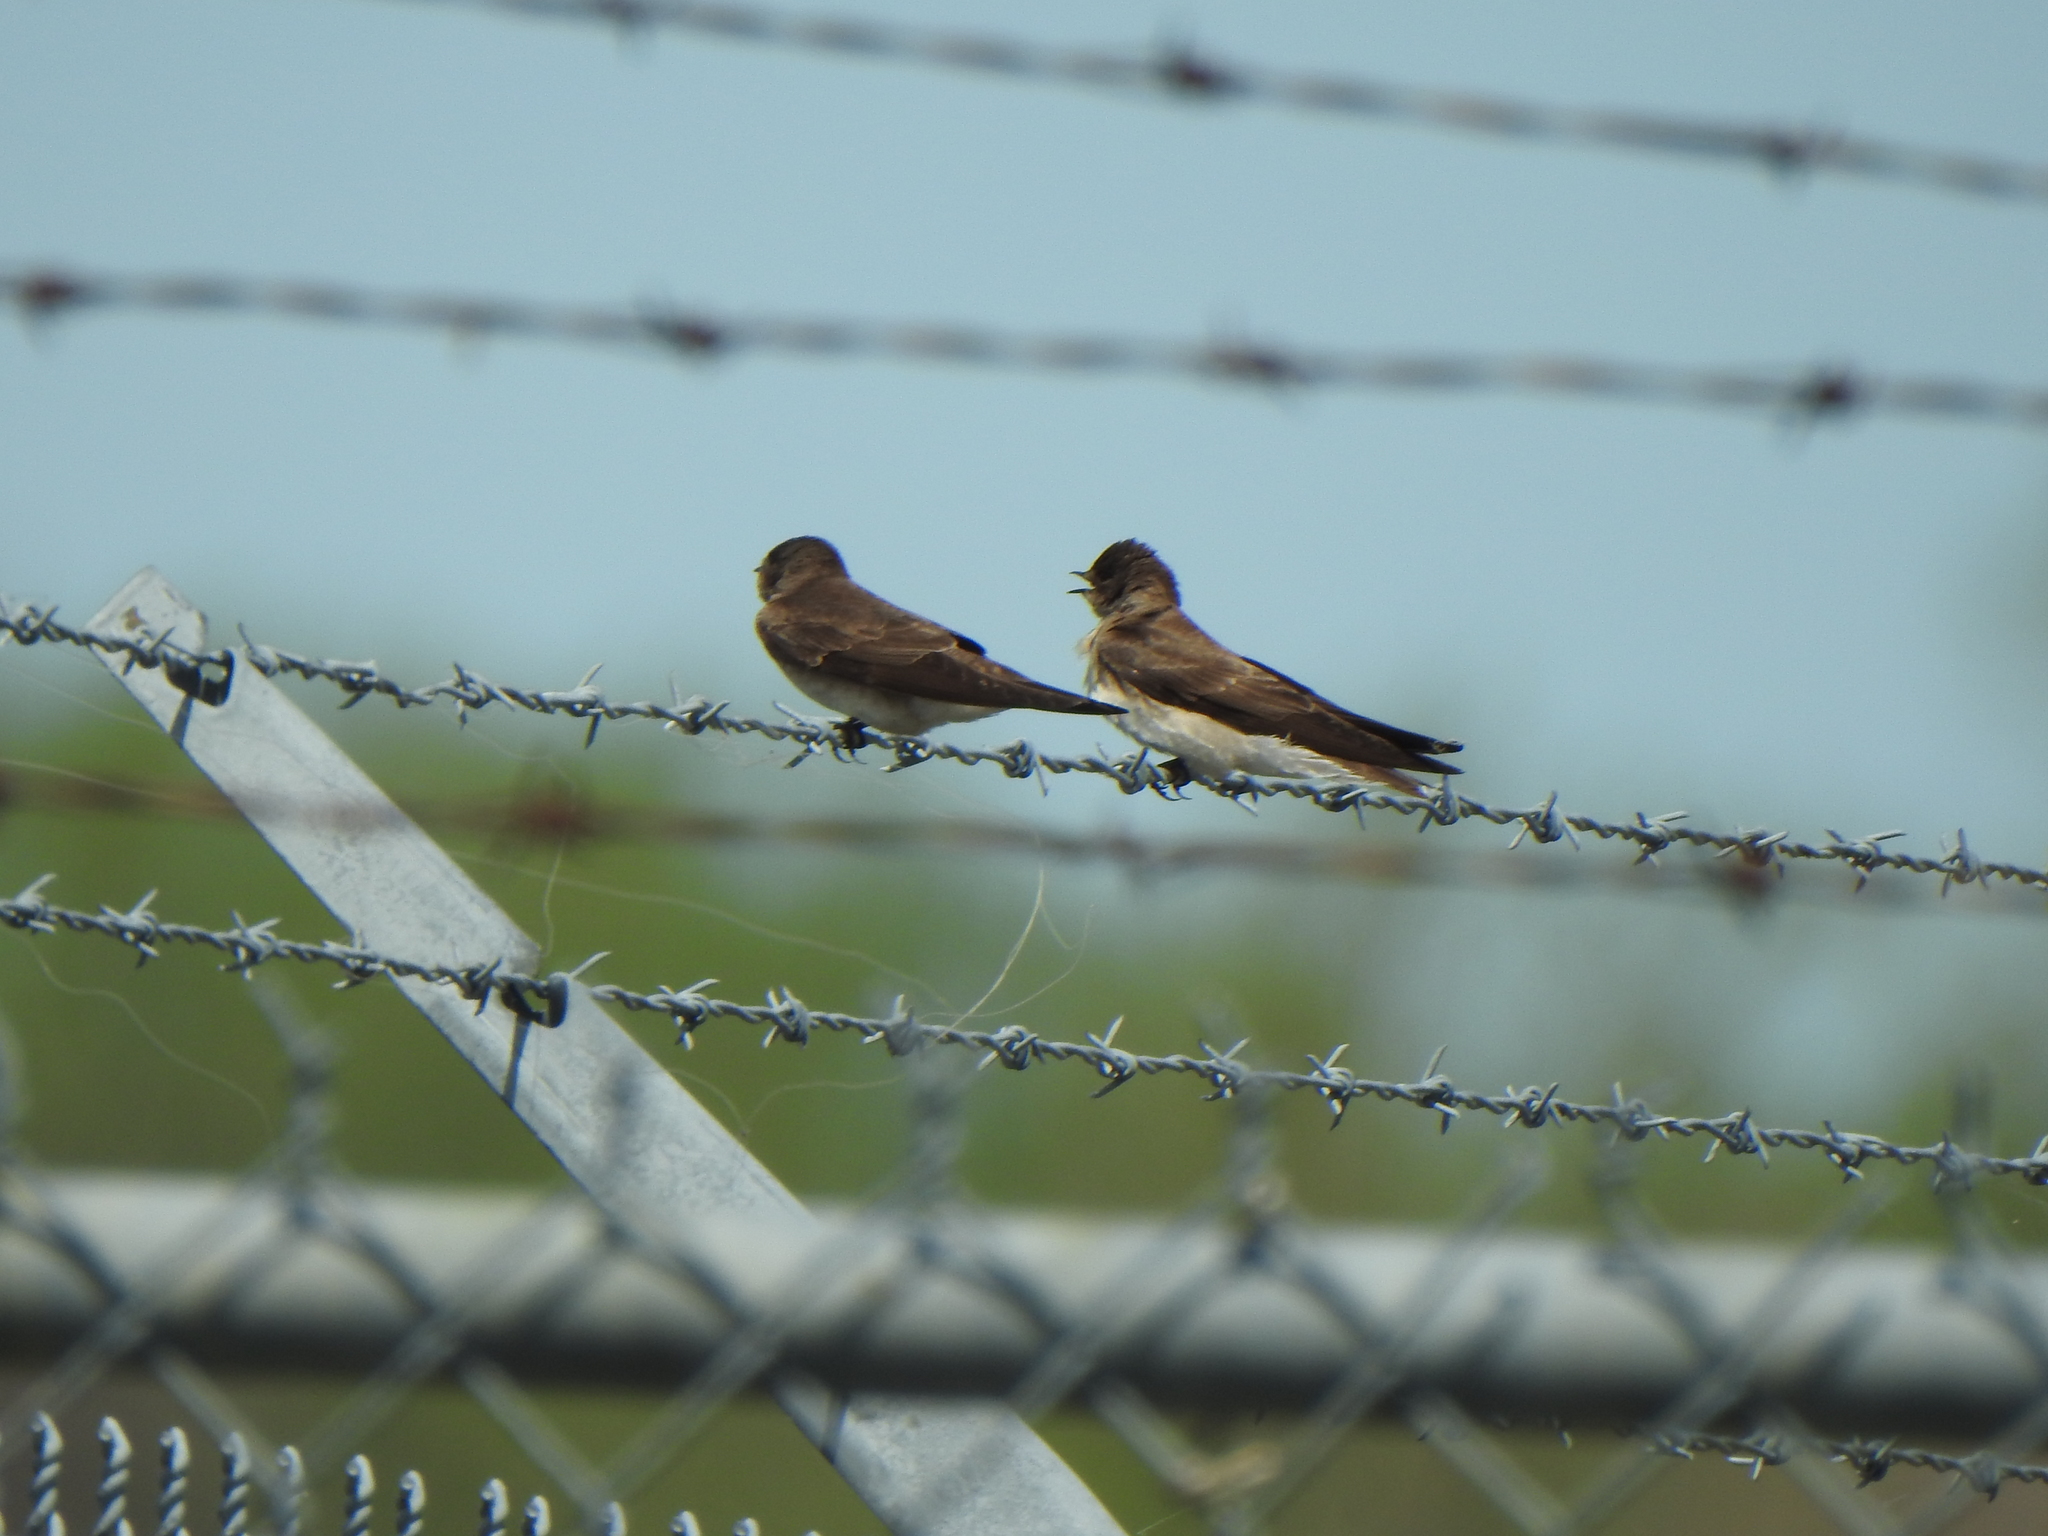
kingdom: Animalia
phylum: Chordata
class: Aves
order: Passeriformes
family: Hirundinidae
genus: Stelgidopteryx
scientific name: Stelgidopteryx serripennis
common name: Northern rough-winged swallow
